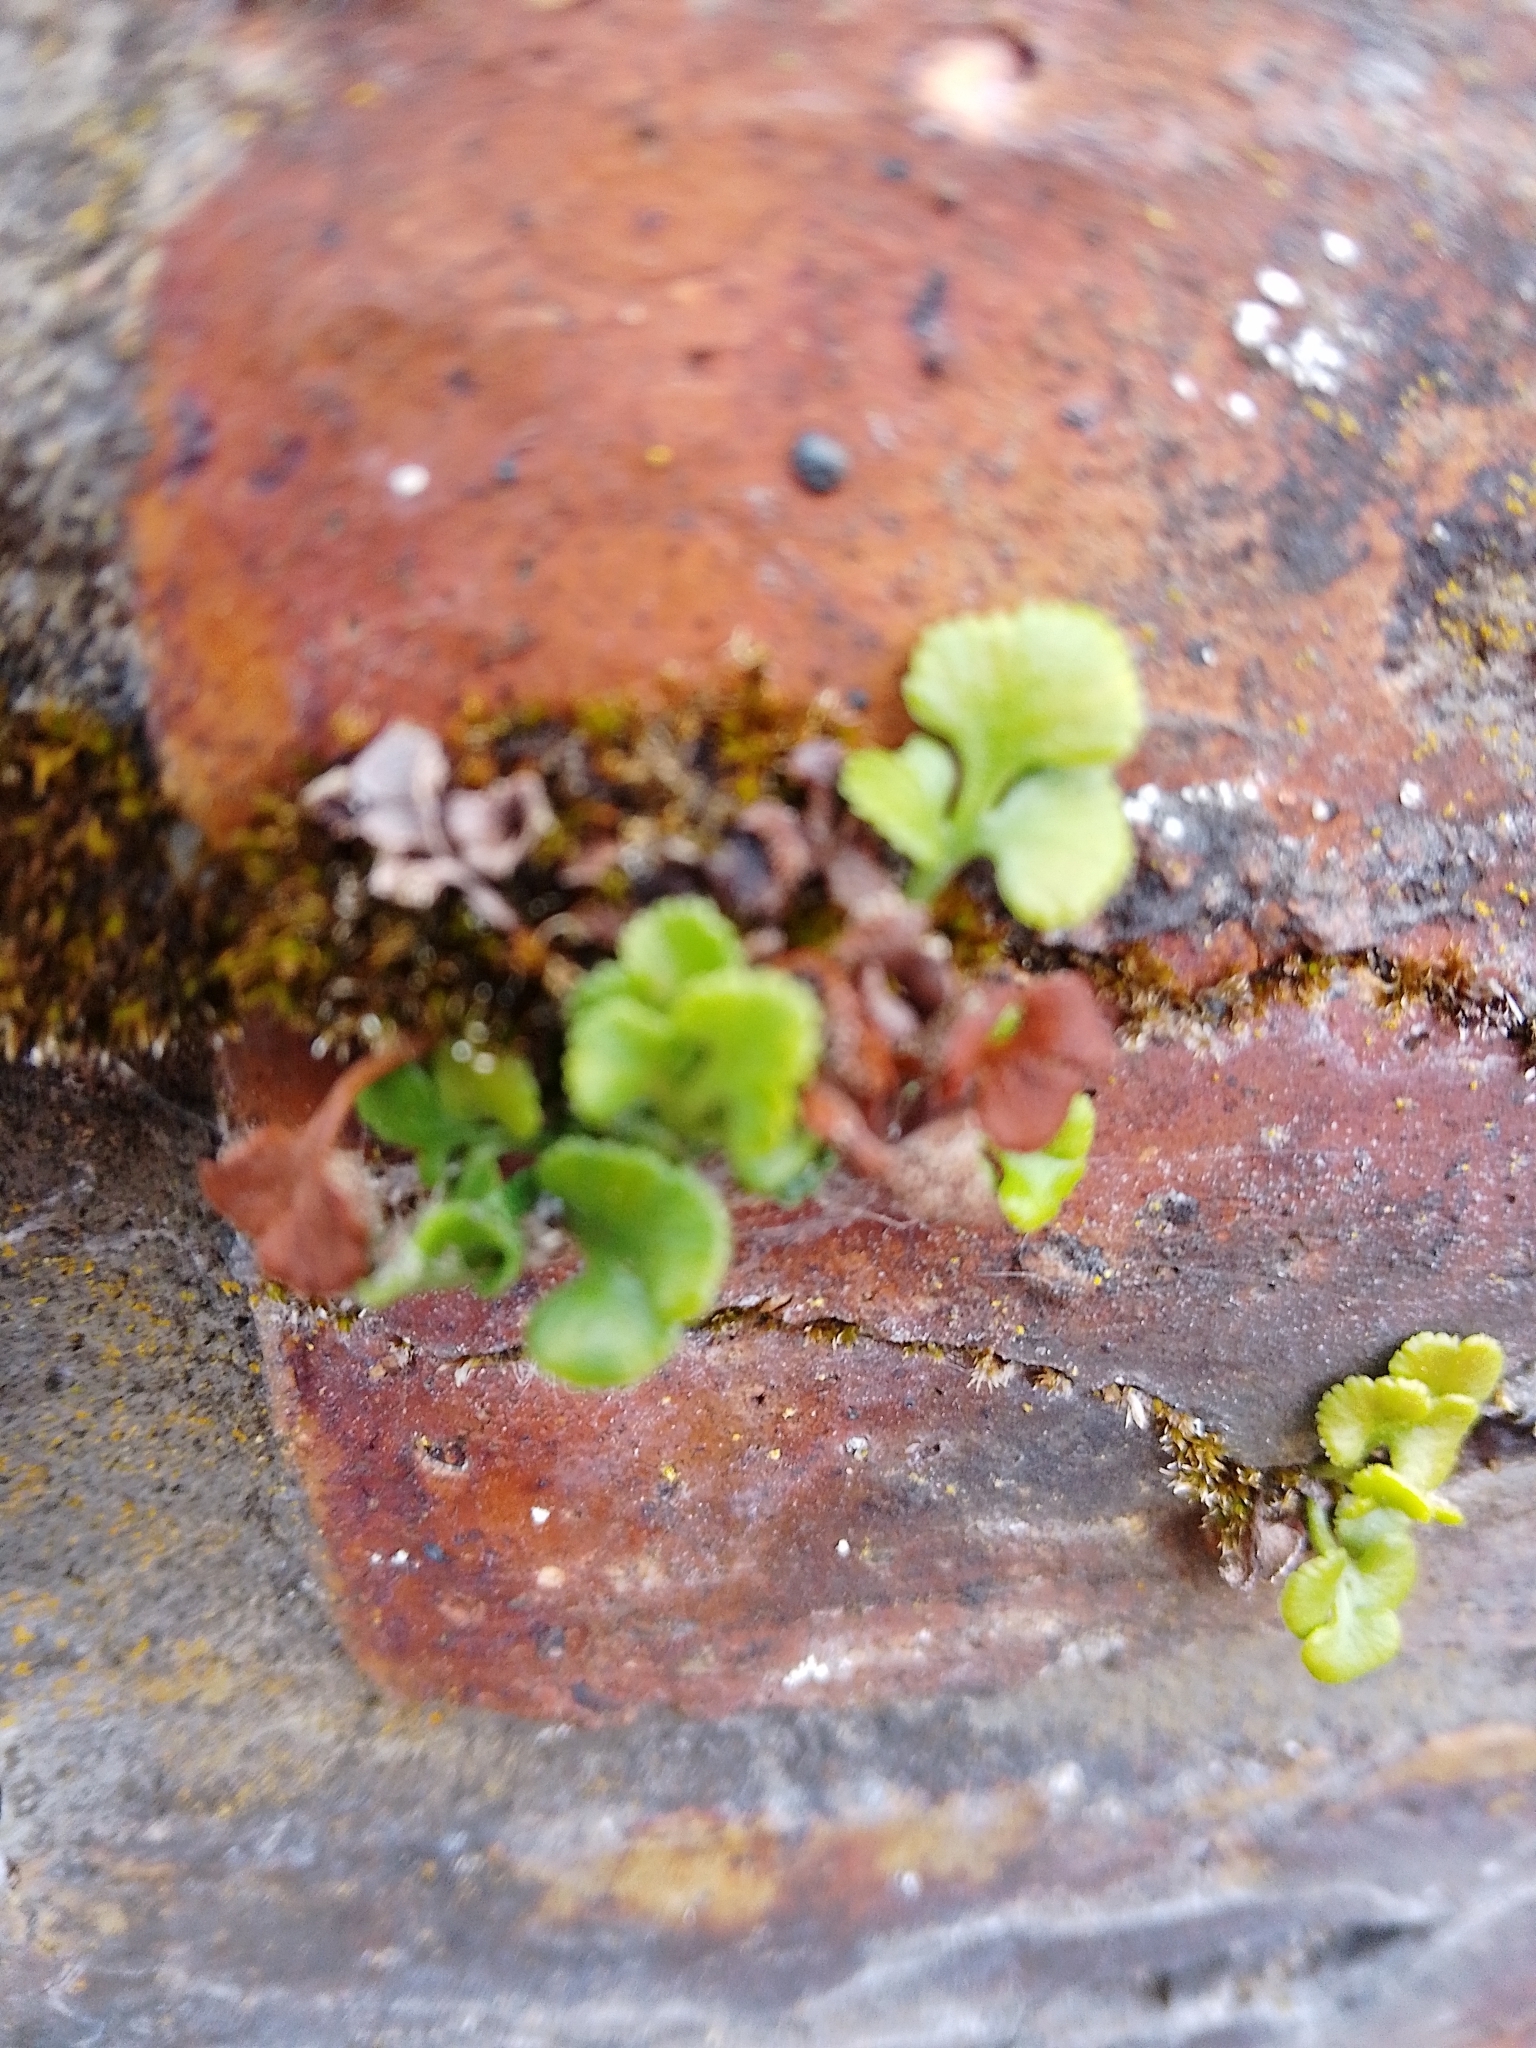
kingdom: Plantae
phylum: Tracheophyta
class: Polypodiopsida
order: Polypodiales
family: Aspleniaceae
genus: Asplenium
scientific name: Asplenium ruta-muraria
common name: Wall-rue
